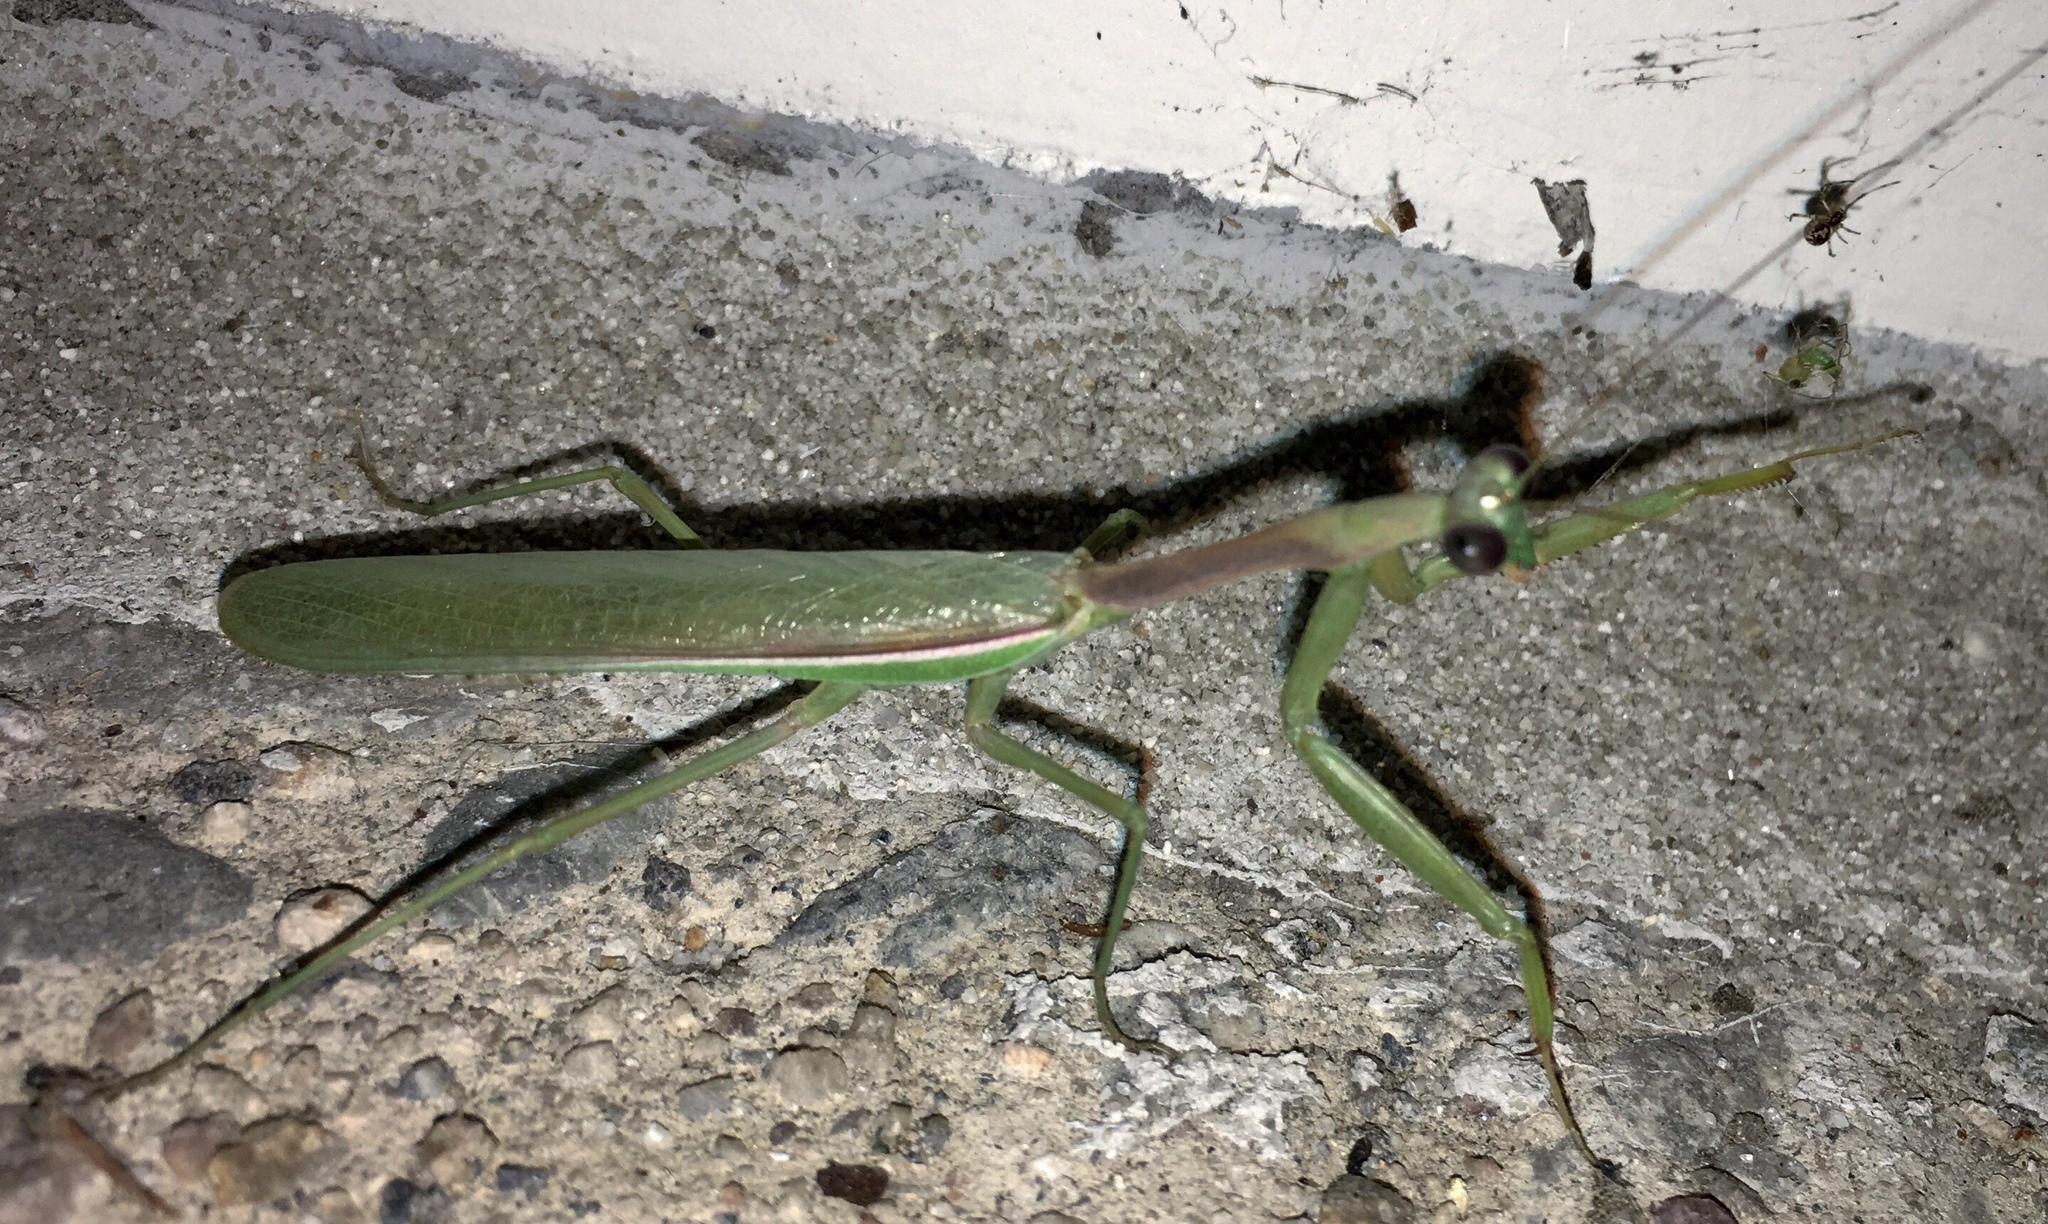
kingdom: Animalia
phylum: Arthropoda
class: Insecta
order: Mantodea
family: Mantidae
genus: Stagmomantis
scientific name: Stagmomantis limbata
